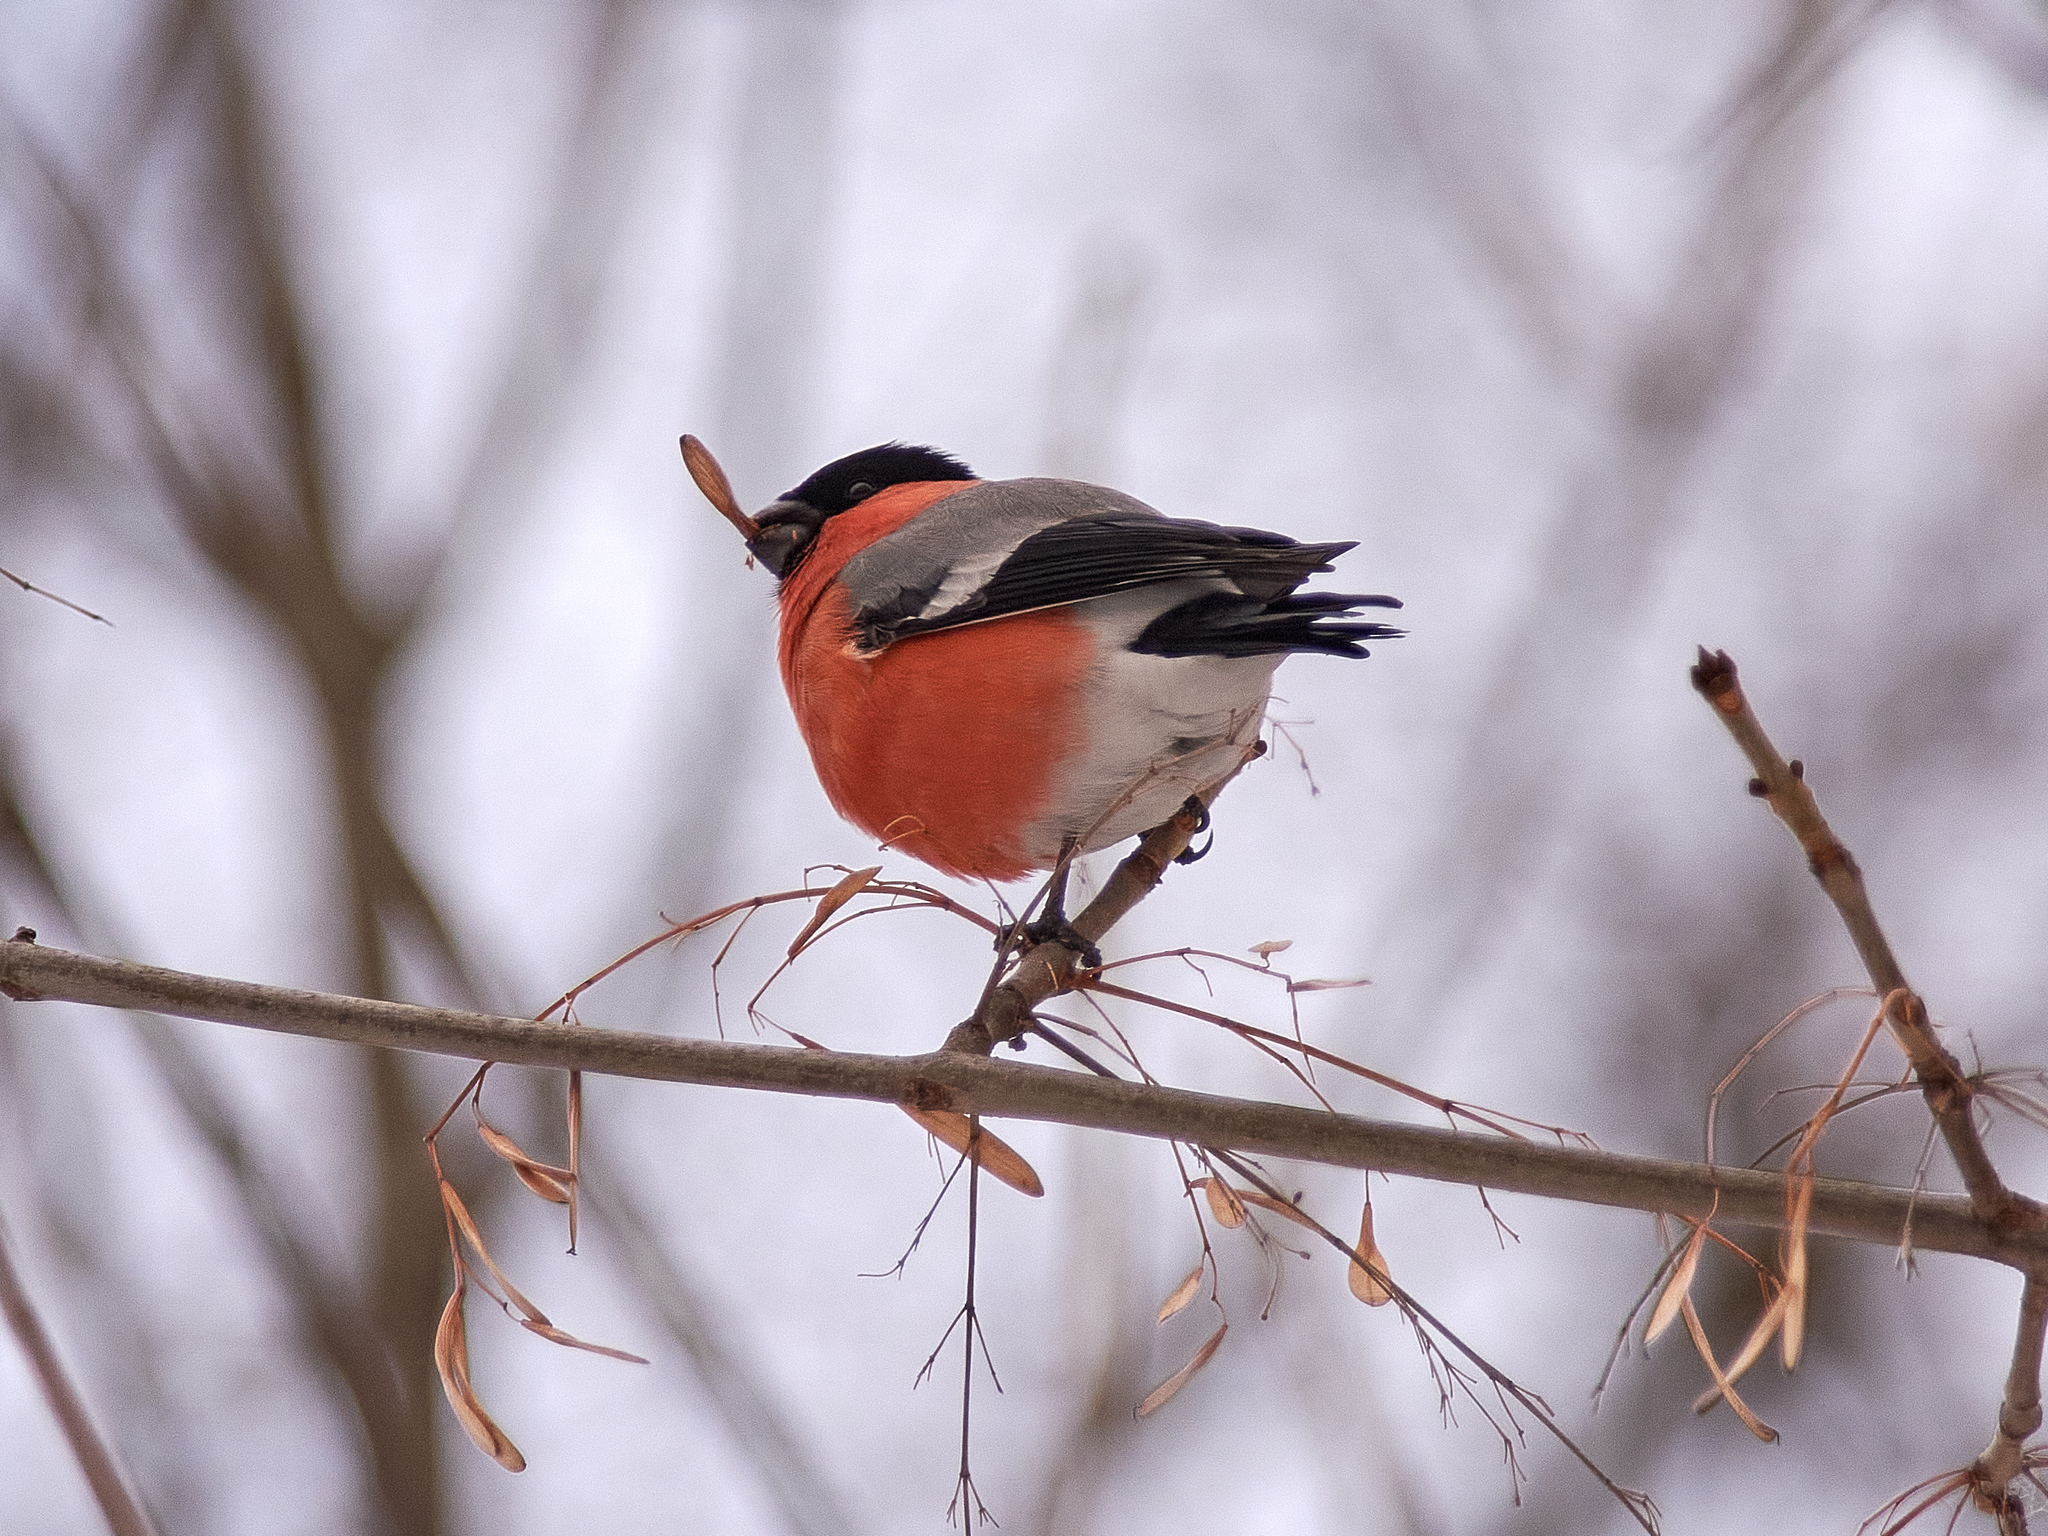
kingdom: Animalia
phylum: Chordata
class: Aves
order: Passeriformes
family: Fringillidae
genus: Pyrrhula
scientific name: Pyrrhula pyrrhula
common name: Eurasian bullfinch
